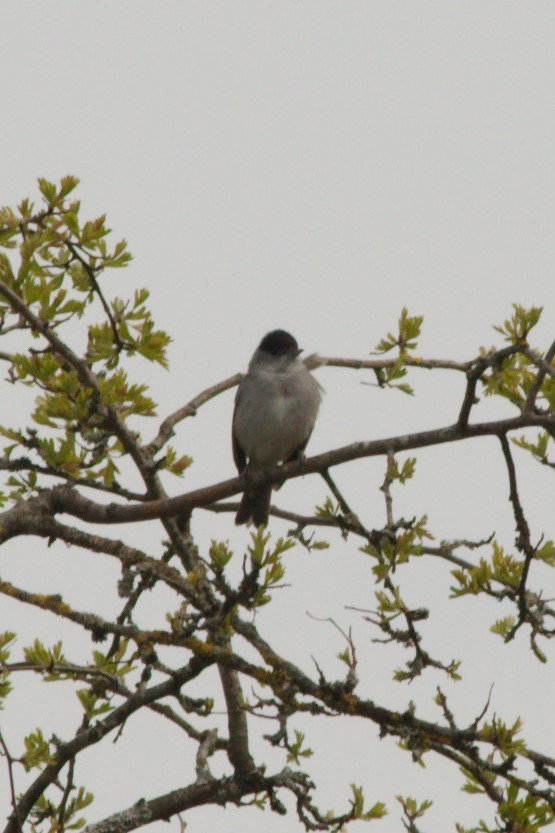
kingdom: Animalia
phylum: Chordata
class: Aves
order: Passeriformes
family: Sylviidae
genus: Sylvia
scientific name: Sylvia atricapilla
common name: Eurasian blackcap
